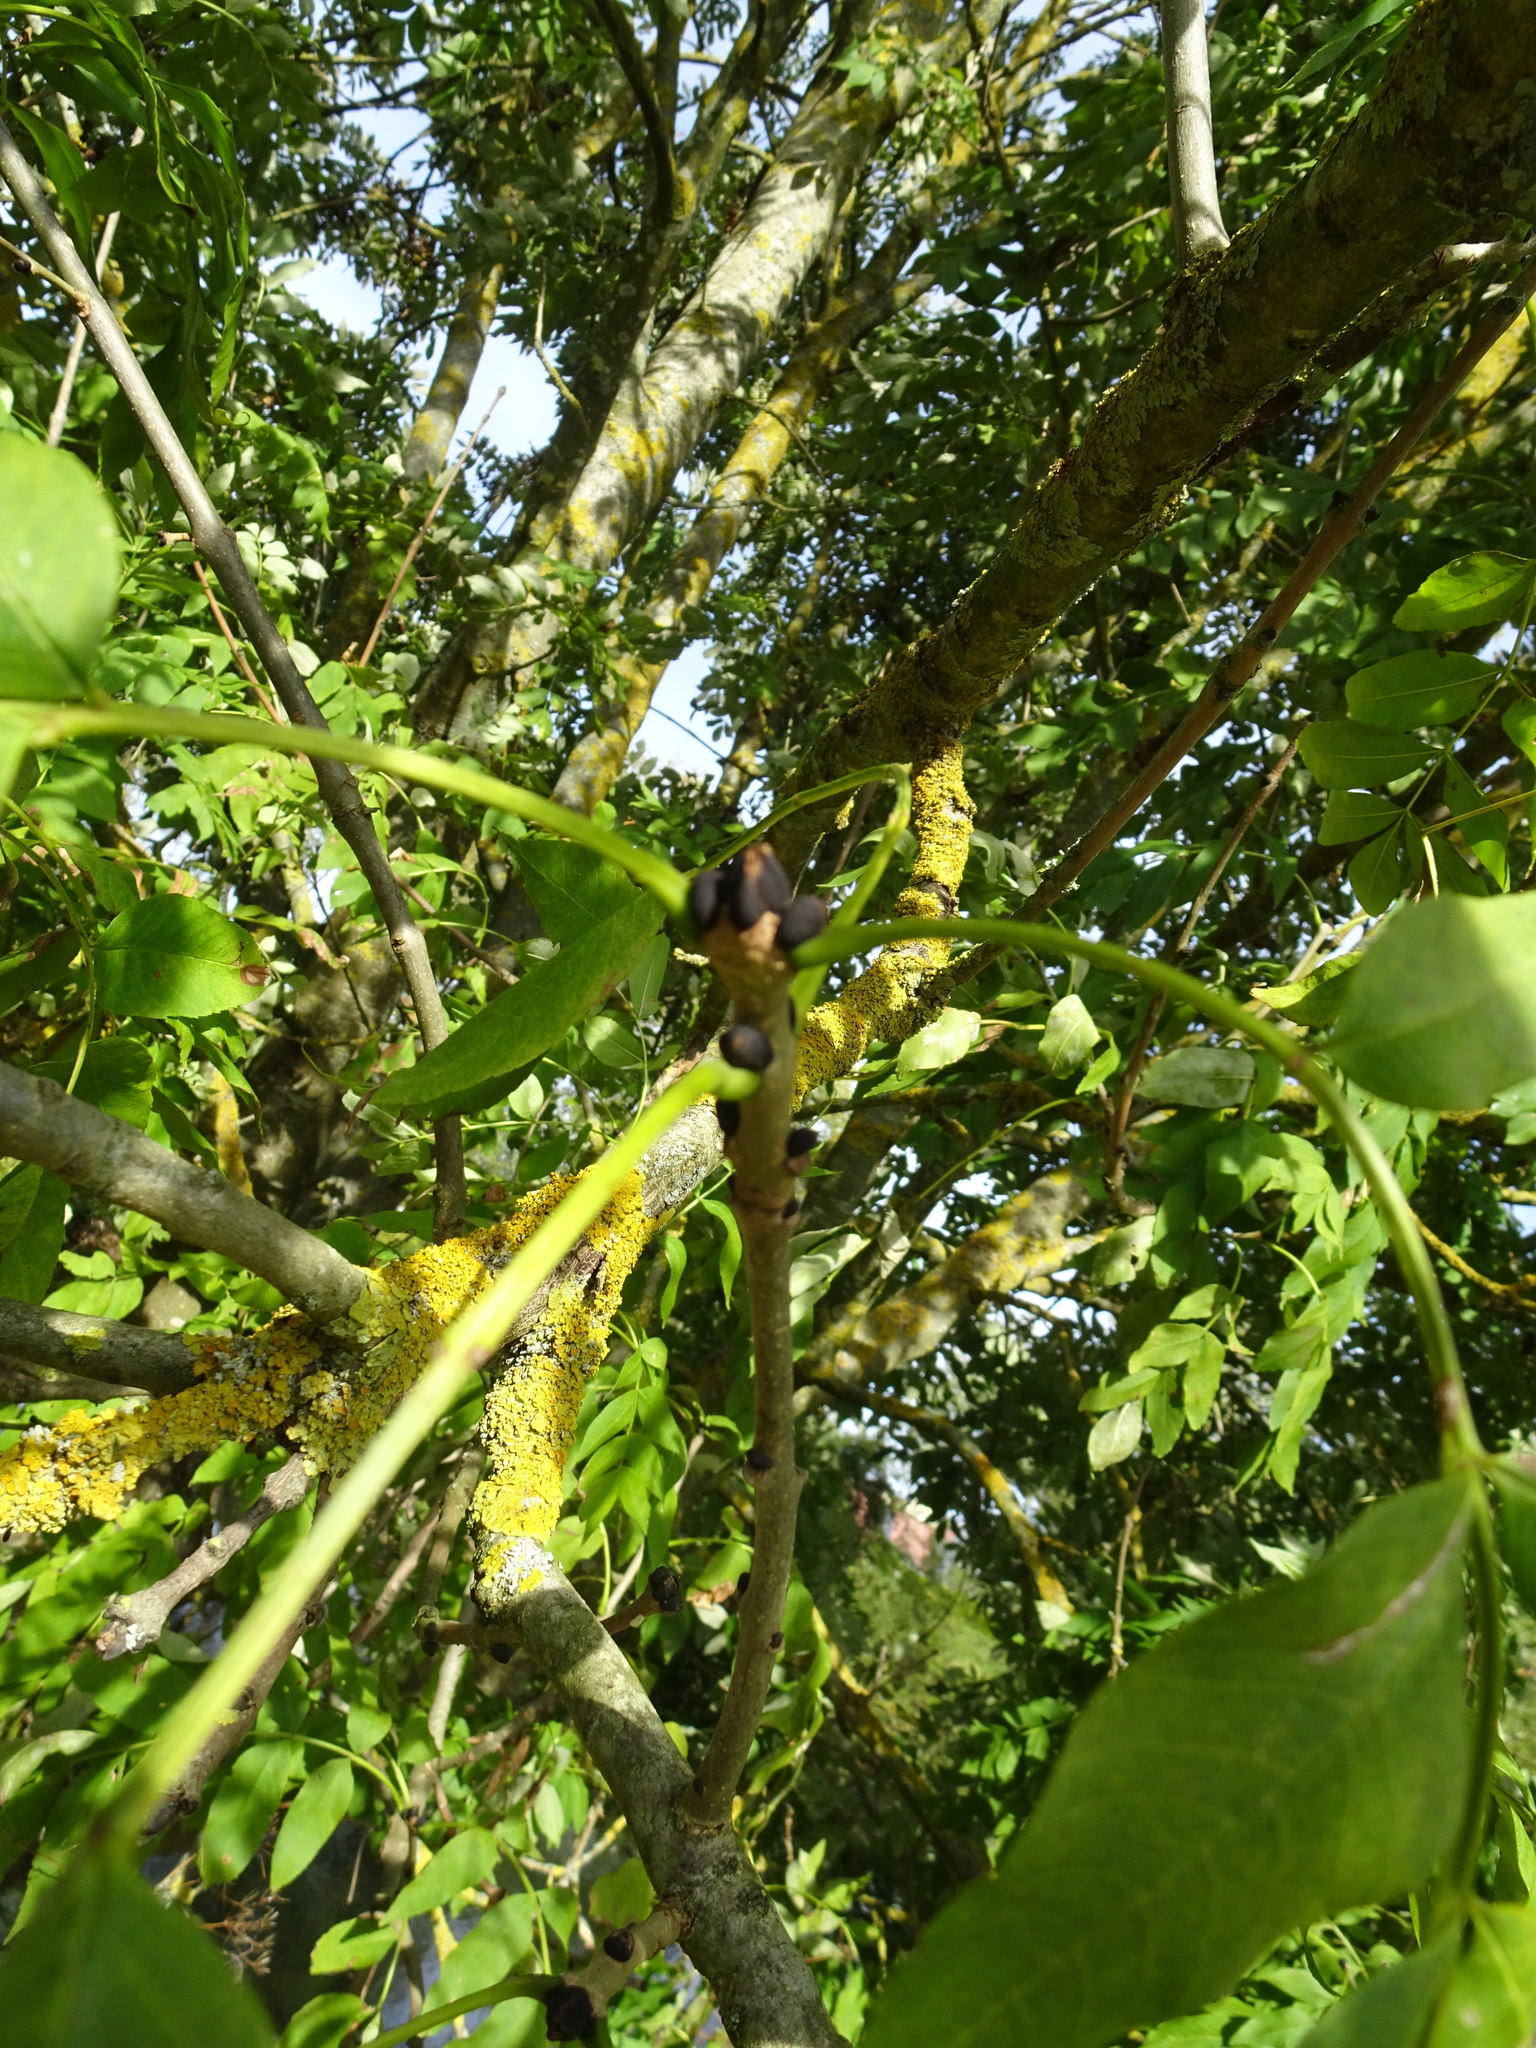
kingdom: Plantae
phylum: Tracheophyta
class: Magnoliopsida
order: Lamiales
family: Oleaceae
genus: Fraxinus
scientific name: Fraxinus excelsior
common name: European ash
